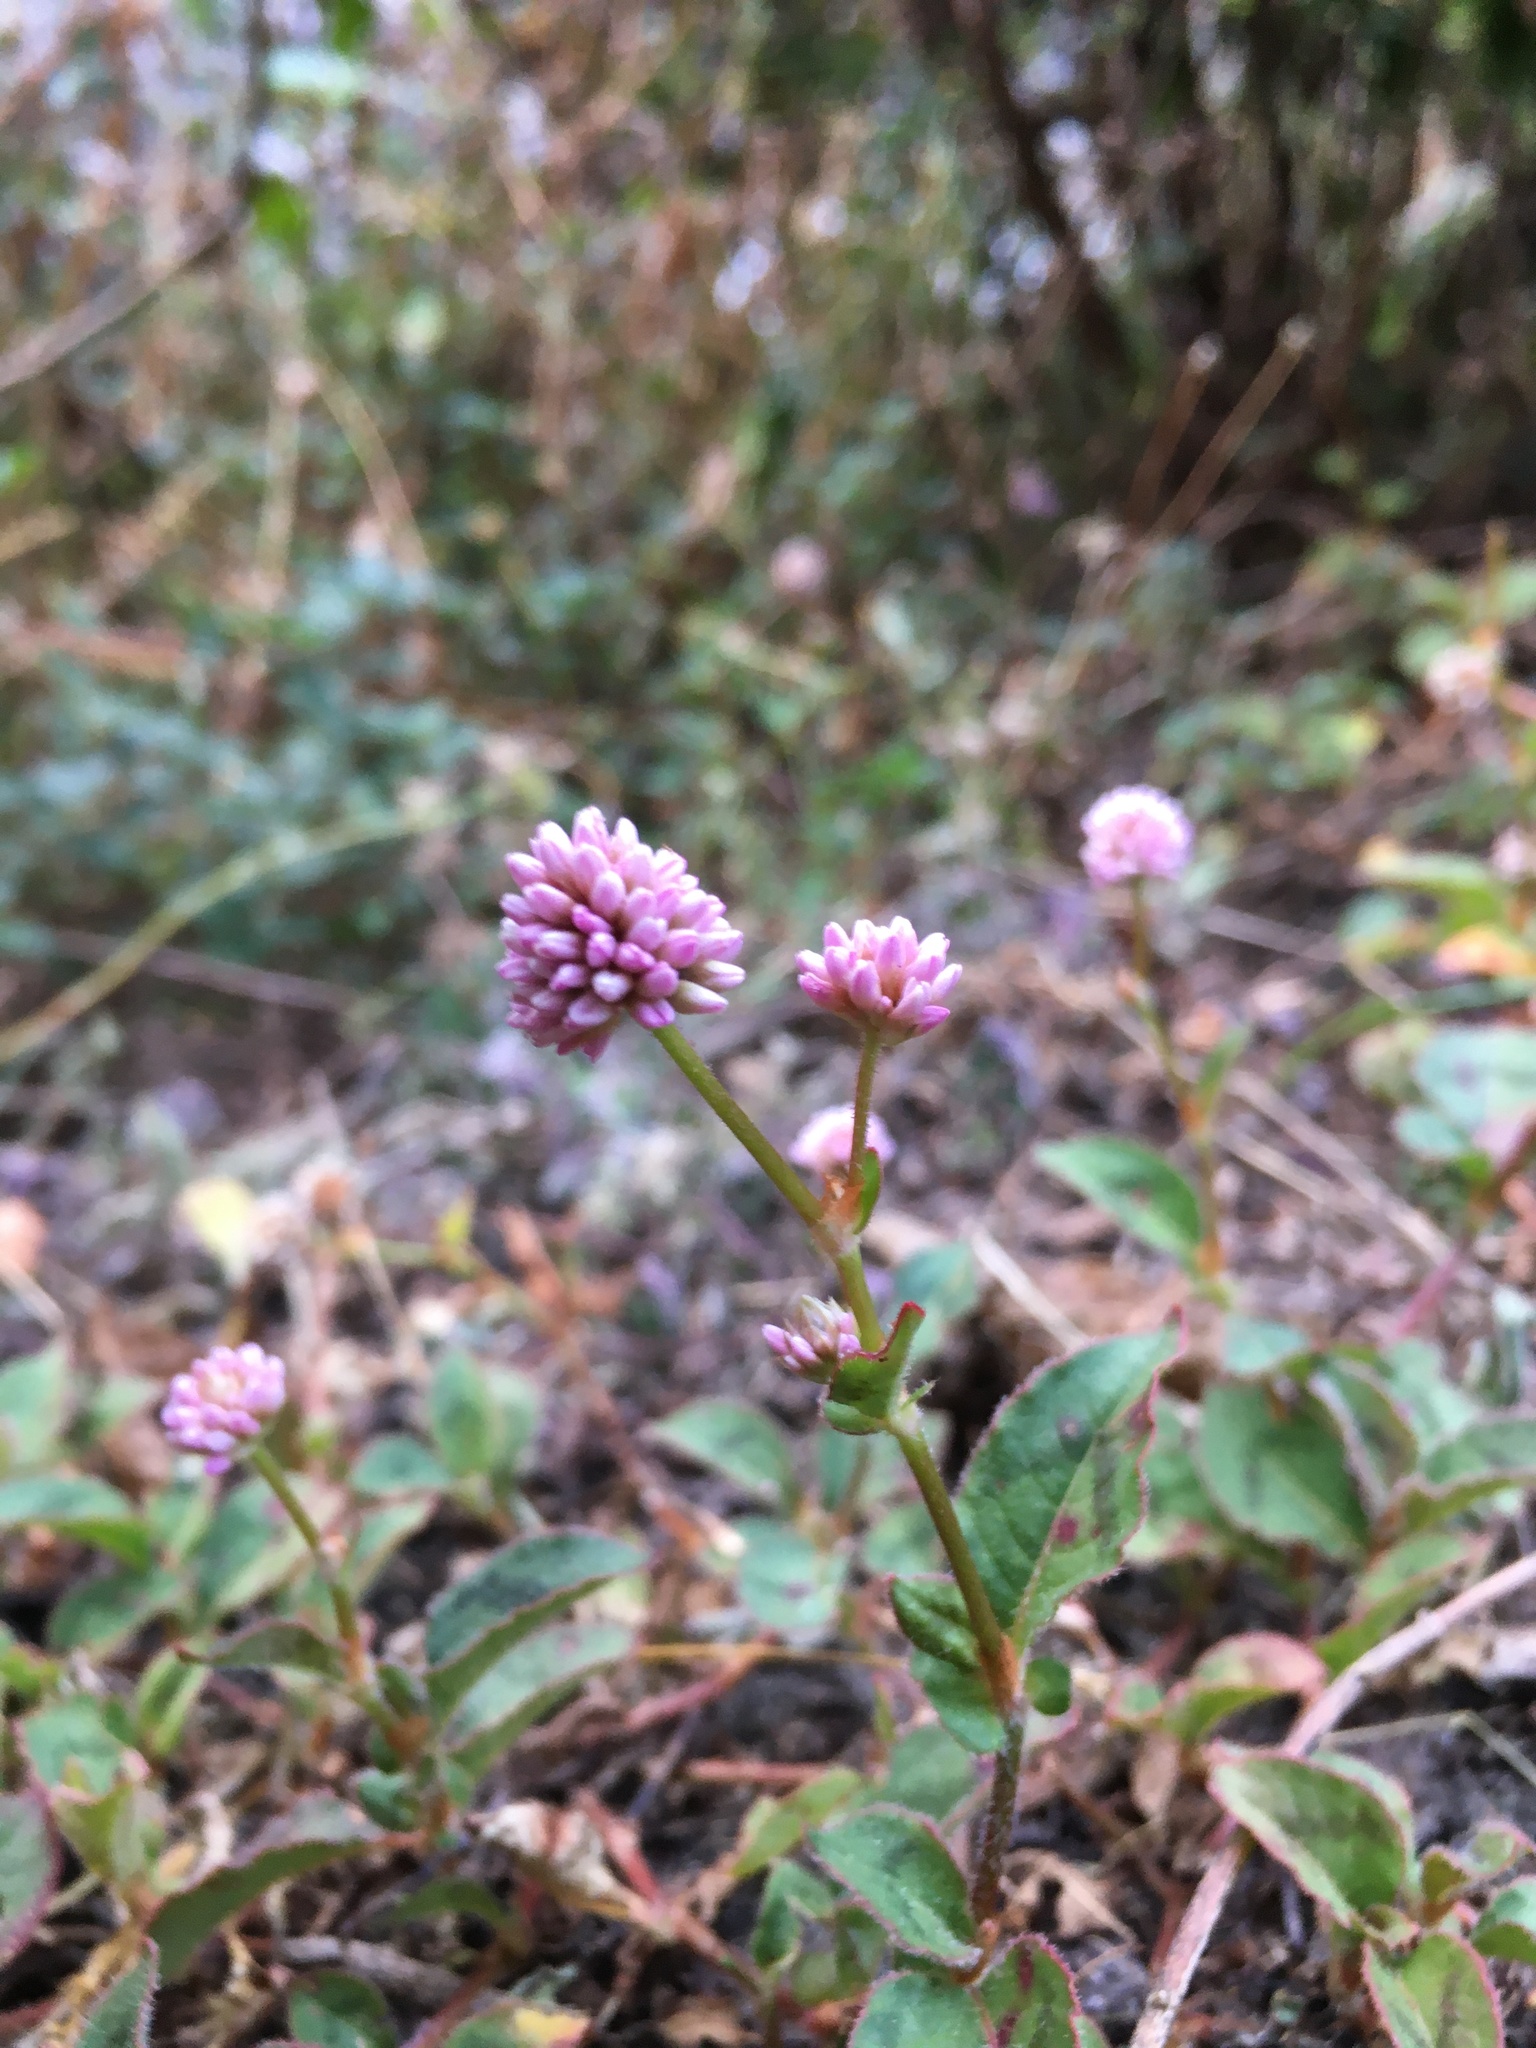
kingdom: Plantae
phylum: Tracheophyta
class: Magnoliopsida
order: Caryophyllales
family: Polygonaceae
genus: Persicaria
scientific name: Persicaria capitata
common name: Pinkhead smartweed
